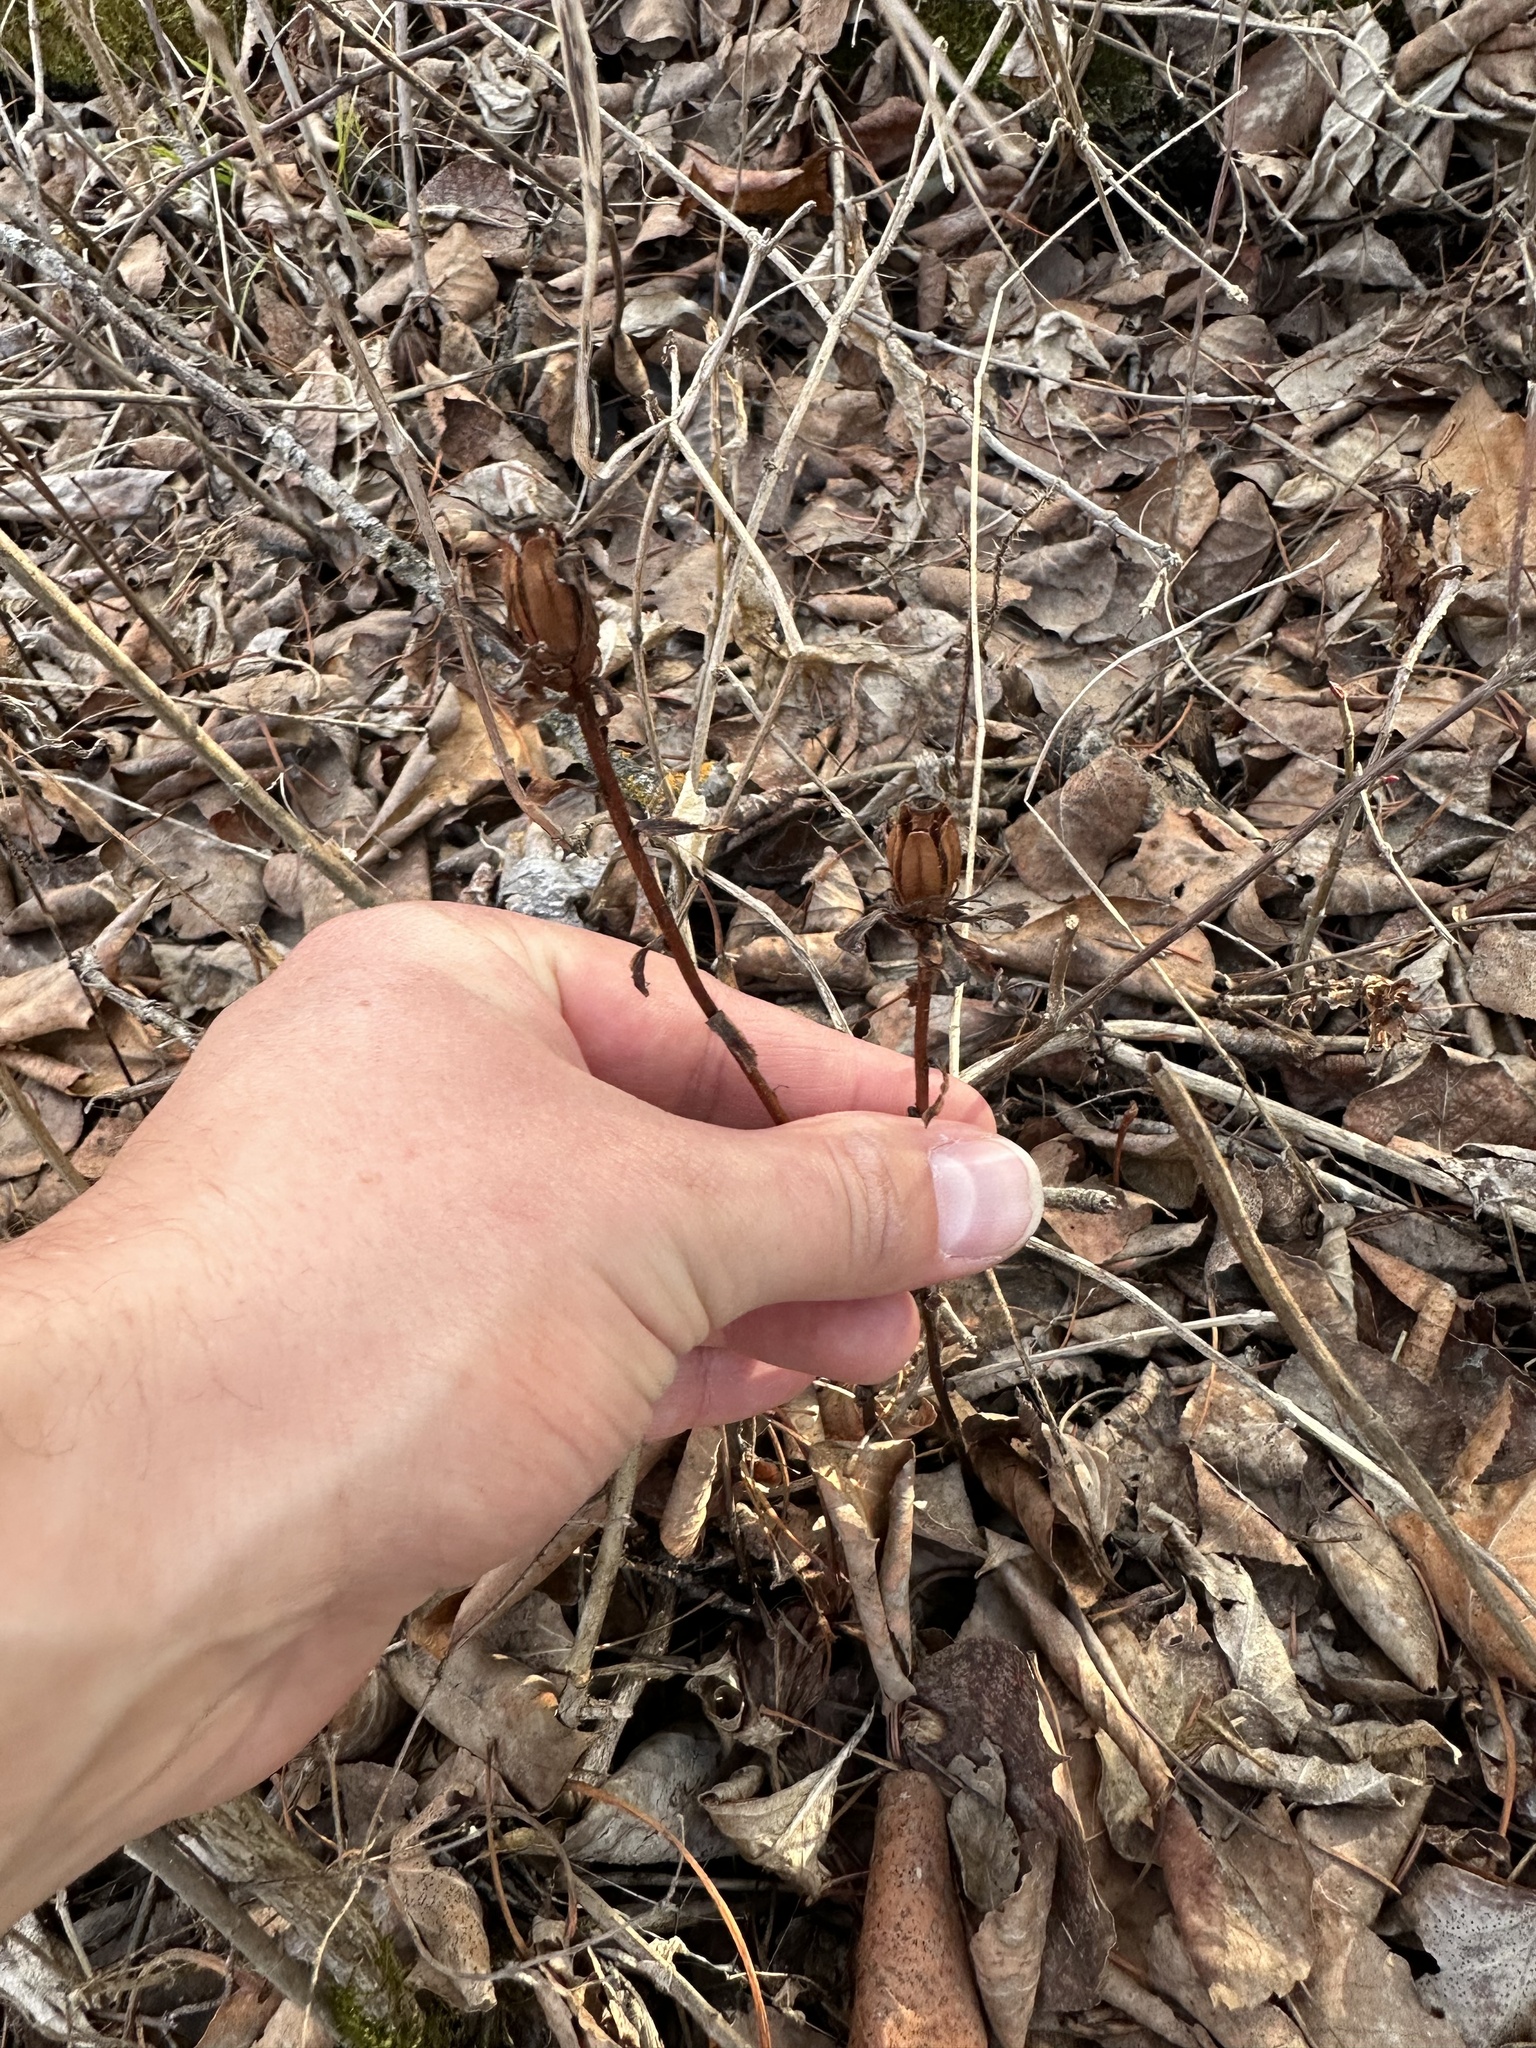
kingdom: Plantae
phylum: Tracheophyta
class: Magnoliopsida
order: Ericales
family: Ericaceae
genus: Monotropa
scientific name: Monotropa uniflora
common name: Convulsion root
